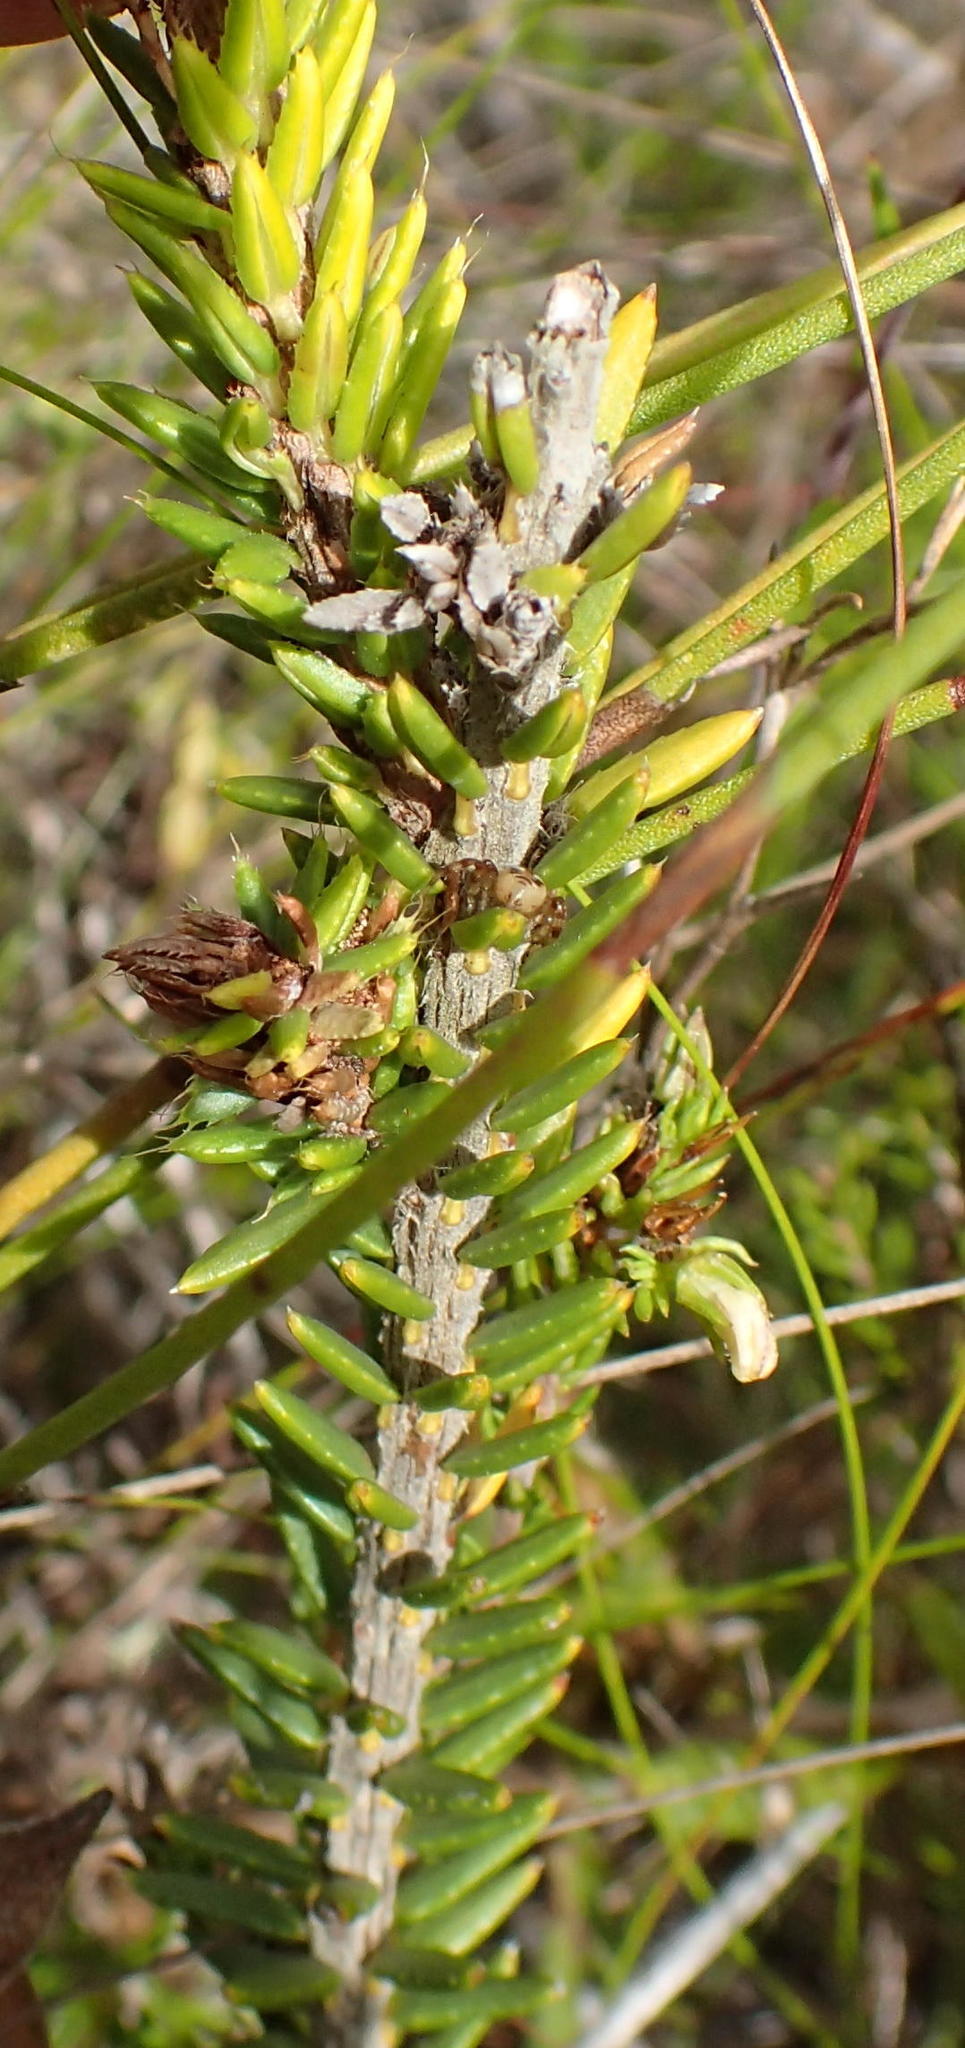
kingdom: Plantae
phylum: Tracheophyta
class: Magnoliopsida
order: Ericales
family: Ericaceae
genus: Erica
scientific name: Erica cerinthoides
